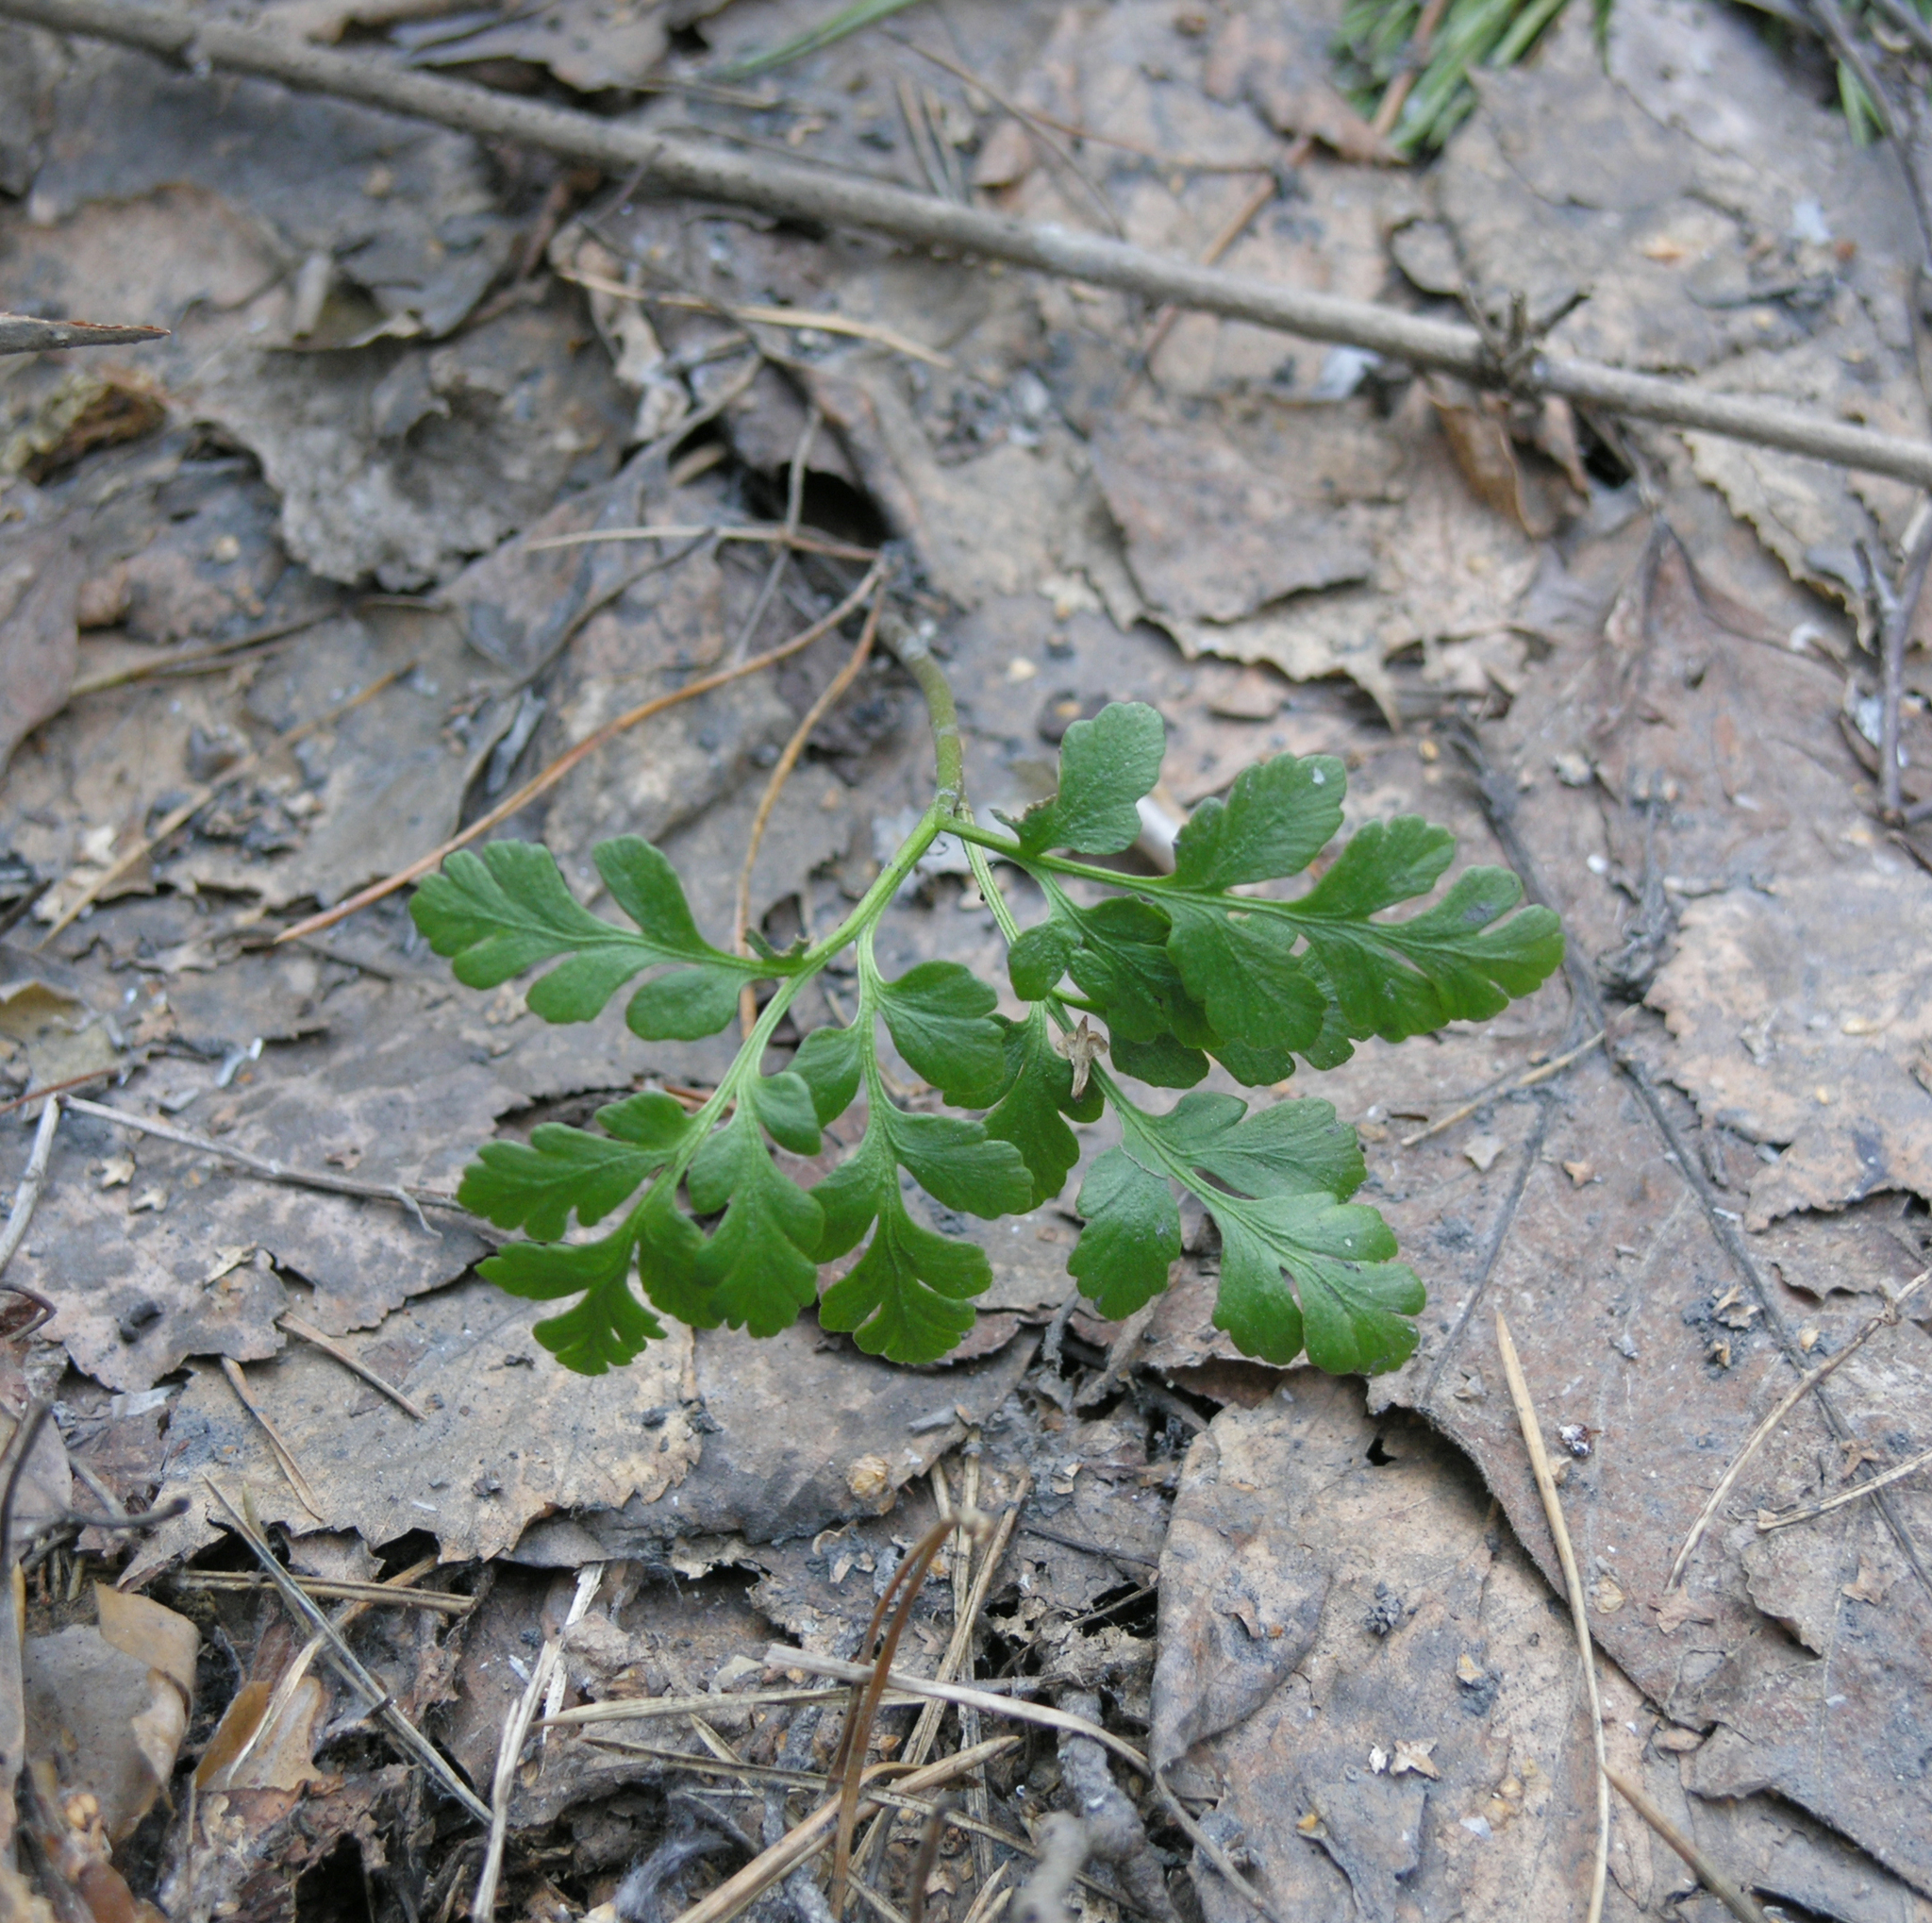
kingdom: Plantae
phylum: Tracheophyta
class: Polypodiopsida
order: Ophioglossales
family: Ophioglossaceae
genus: Sceptridium
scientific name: Sceptridium multifidum
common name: Leathery grape fern
